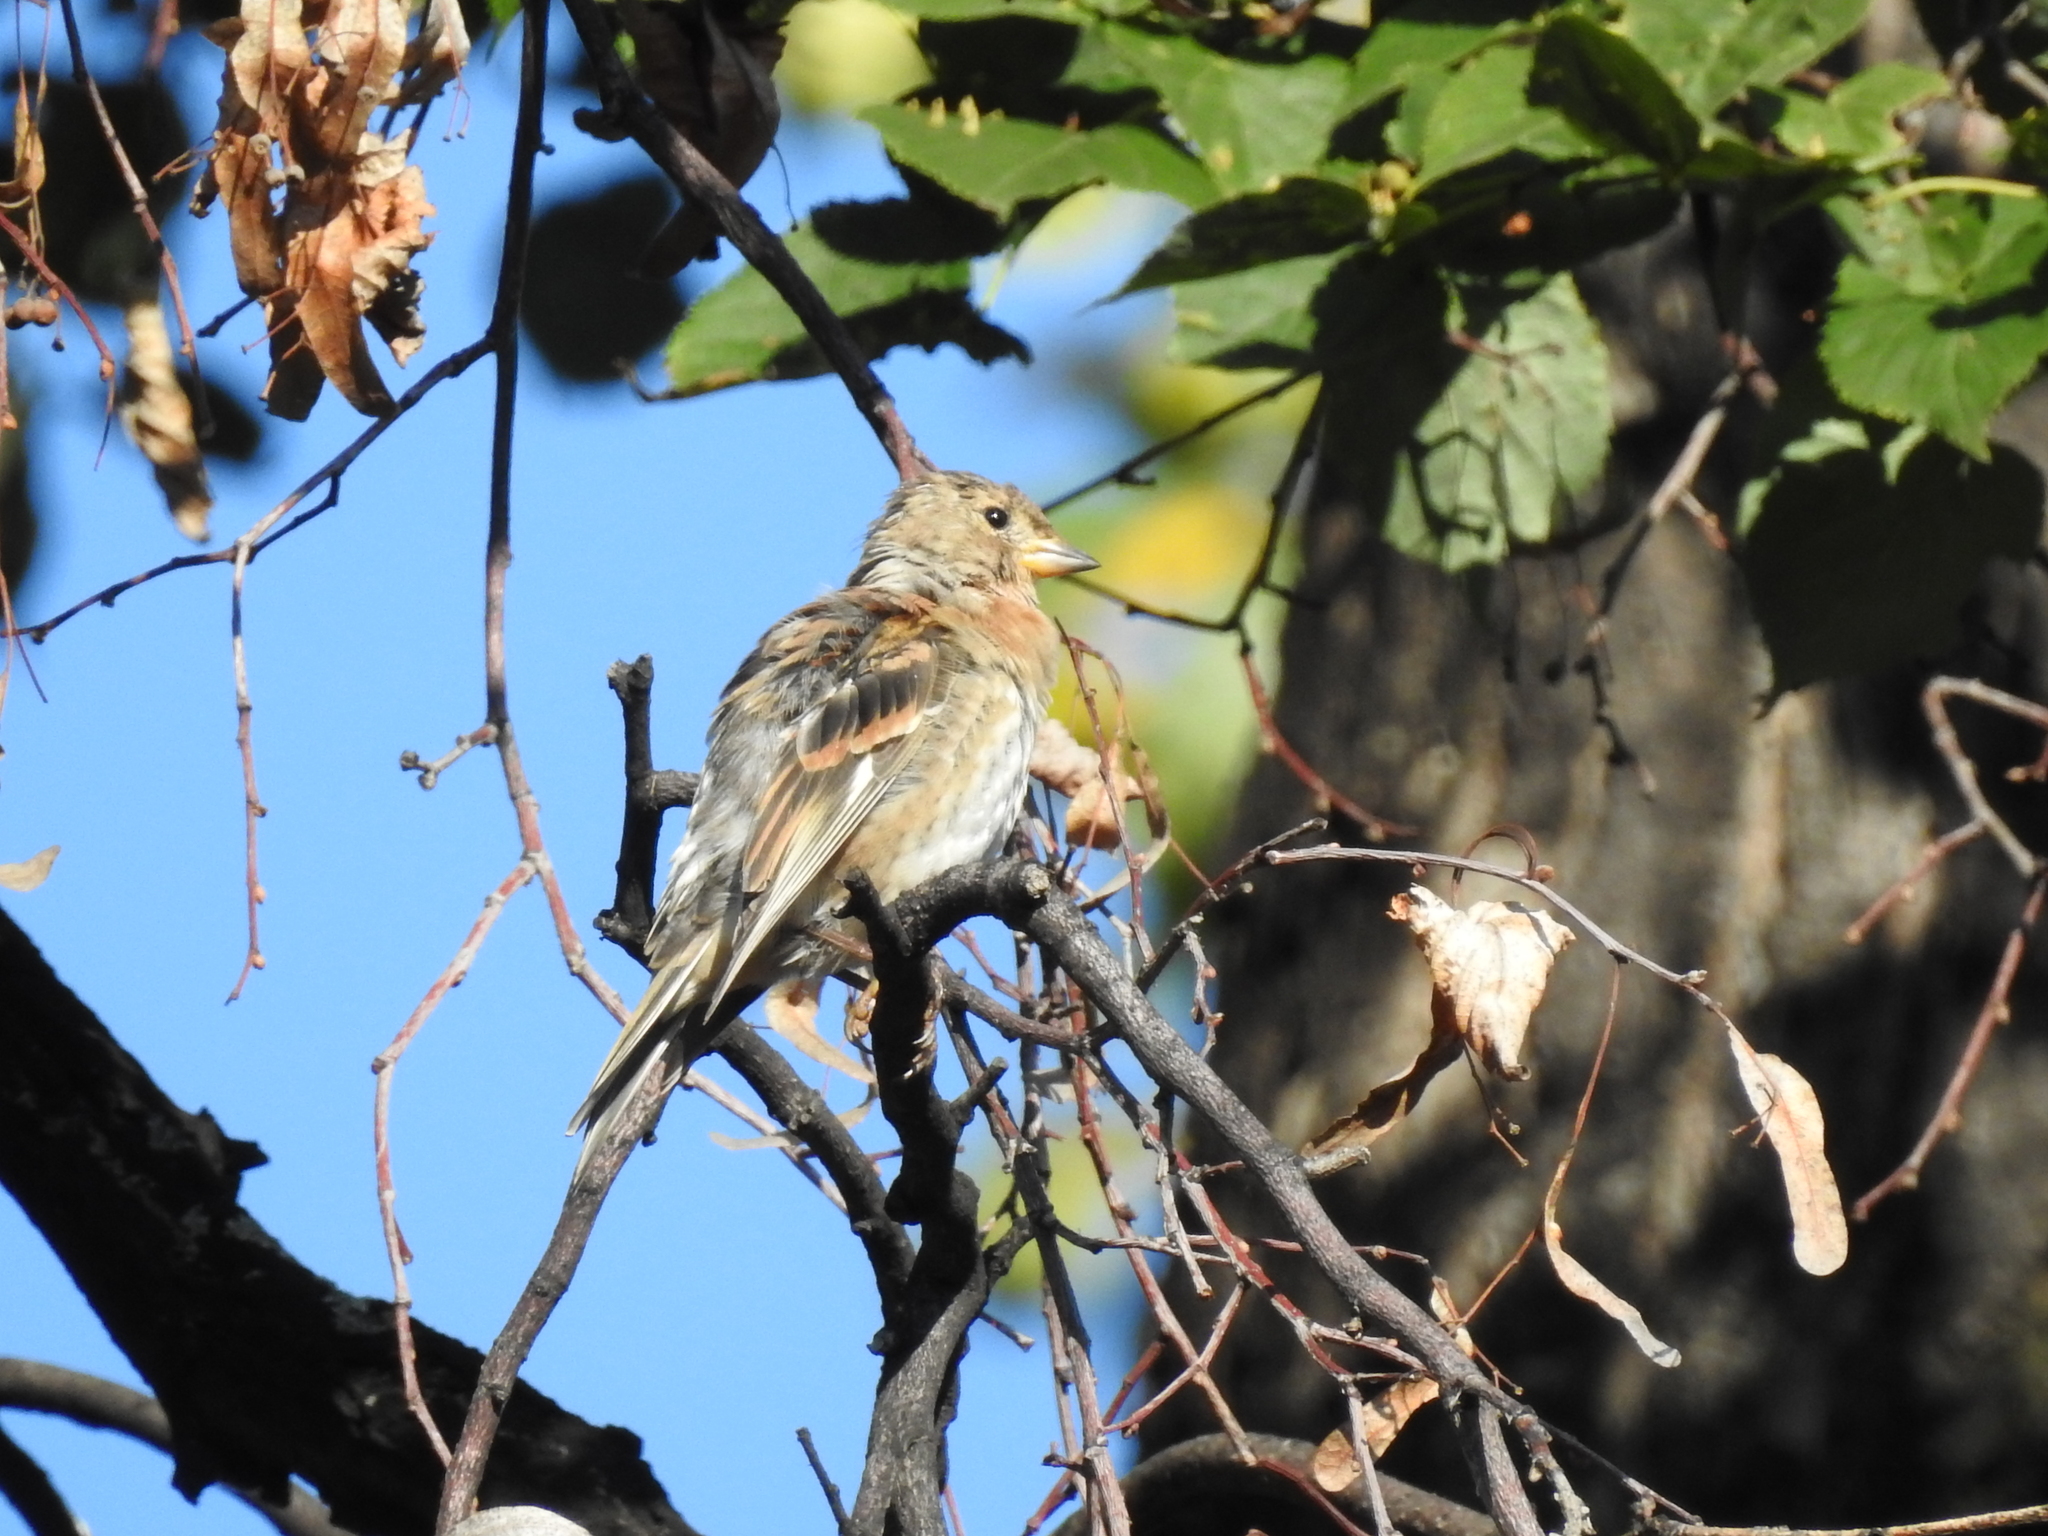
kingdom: Animalia
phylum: Chordata
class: Aves
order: Passeriformes
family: Fringillidae
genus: Fringilla
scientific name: Fringilla montifringilla
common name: Brambling
